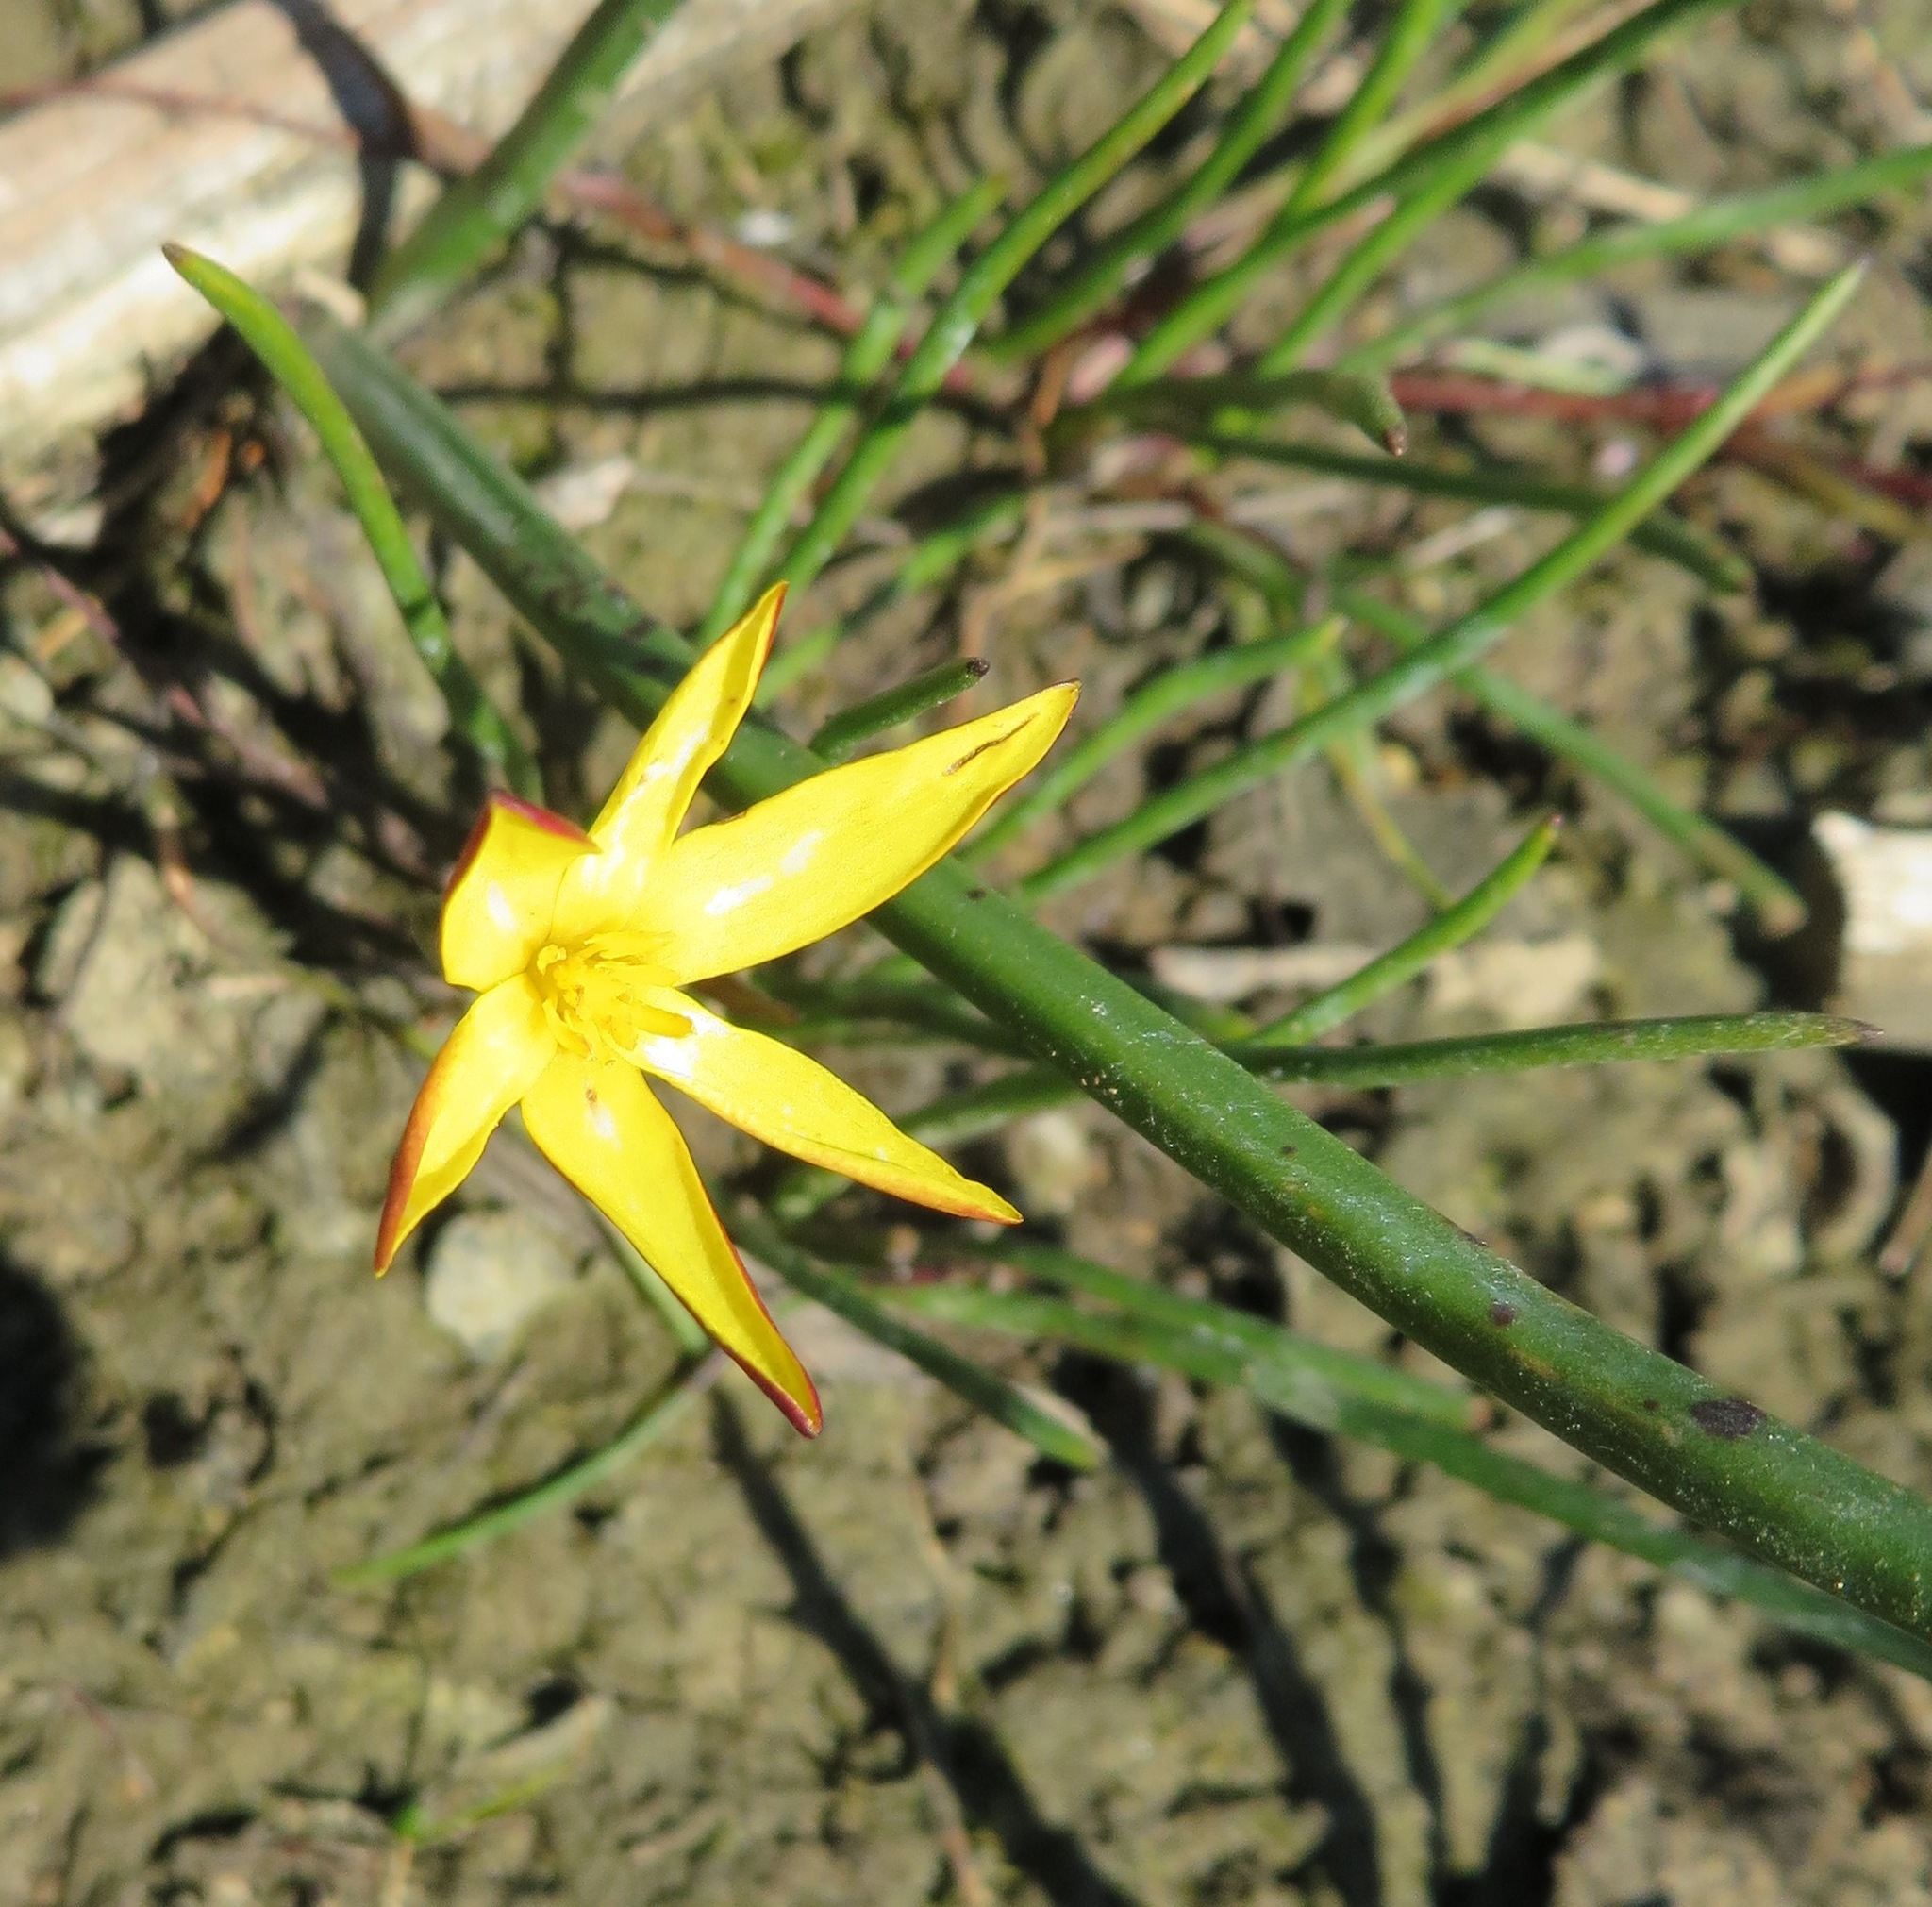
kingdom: Plantae
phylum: Tracheophyta
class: Liliopsida
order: Asparagales
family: Hypoxidaceae
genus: Pauridia
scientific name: Pauridia affinis
